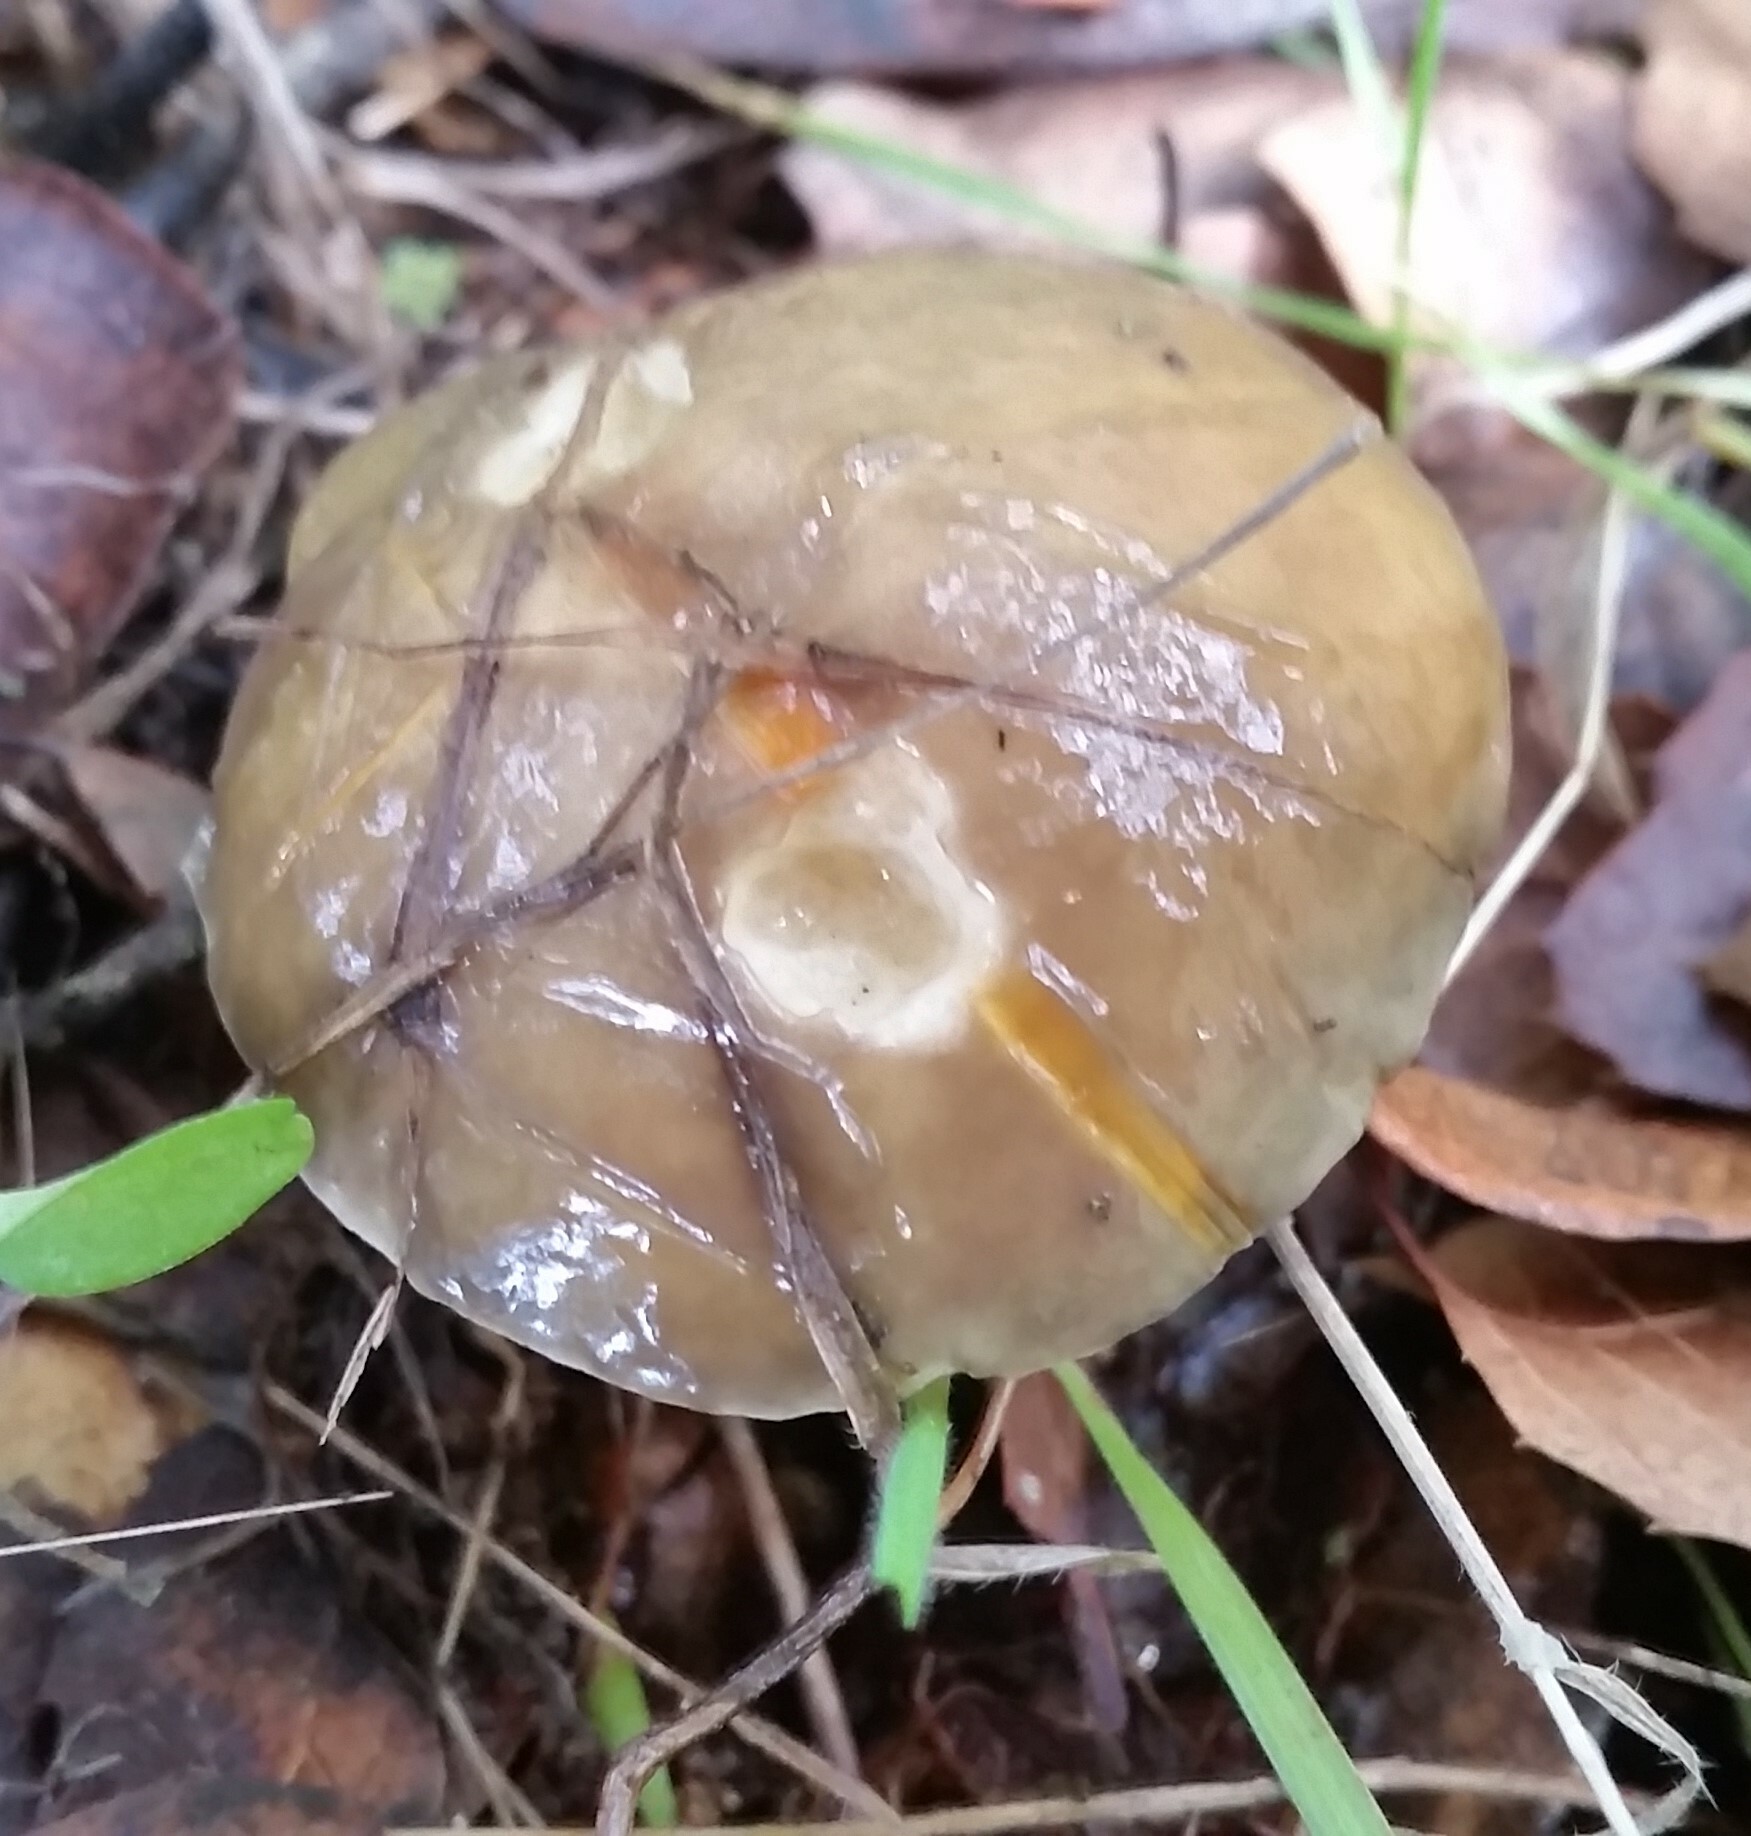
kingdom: Fungi
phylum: Basidiomycota
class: Agaricomycetes
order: Boletales
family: Suillaceae
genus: Suillus
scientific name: Suillus pungens
